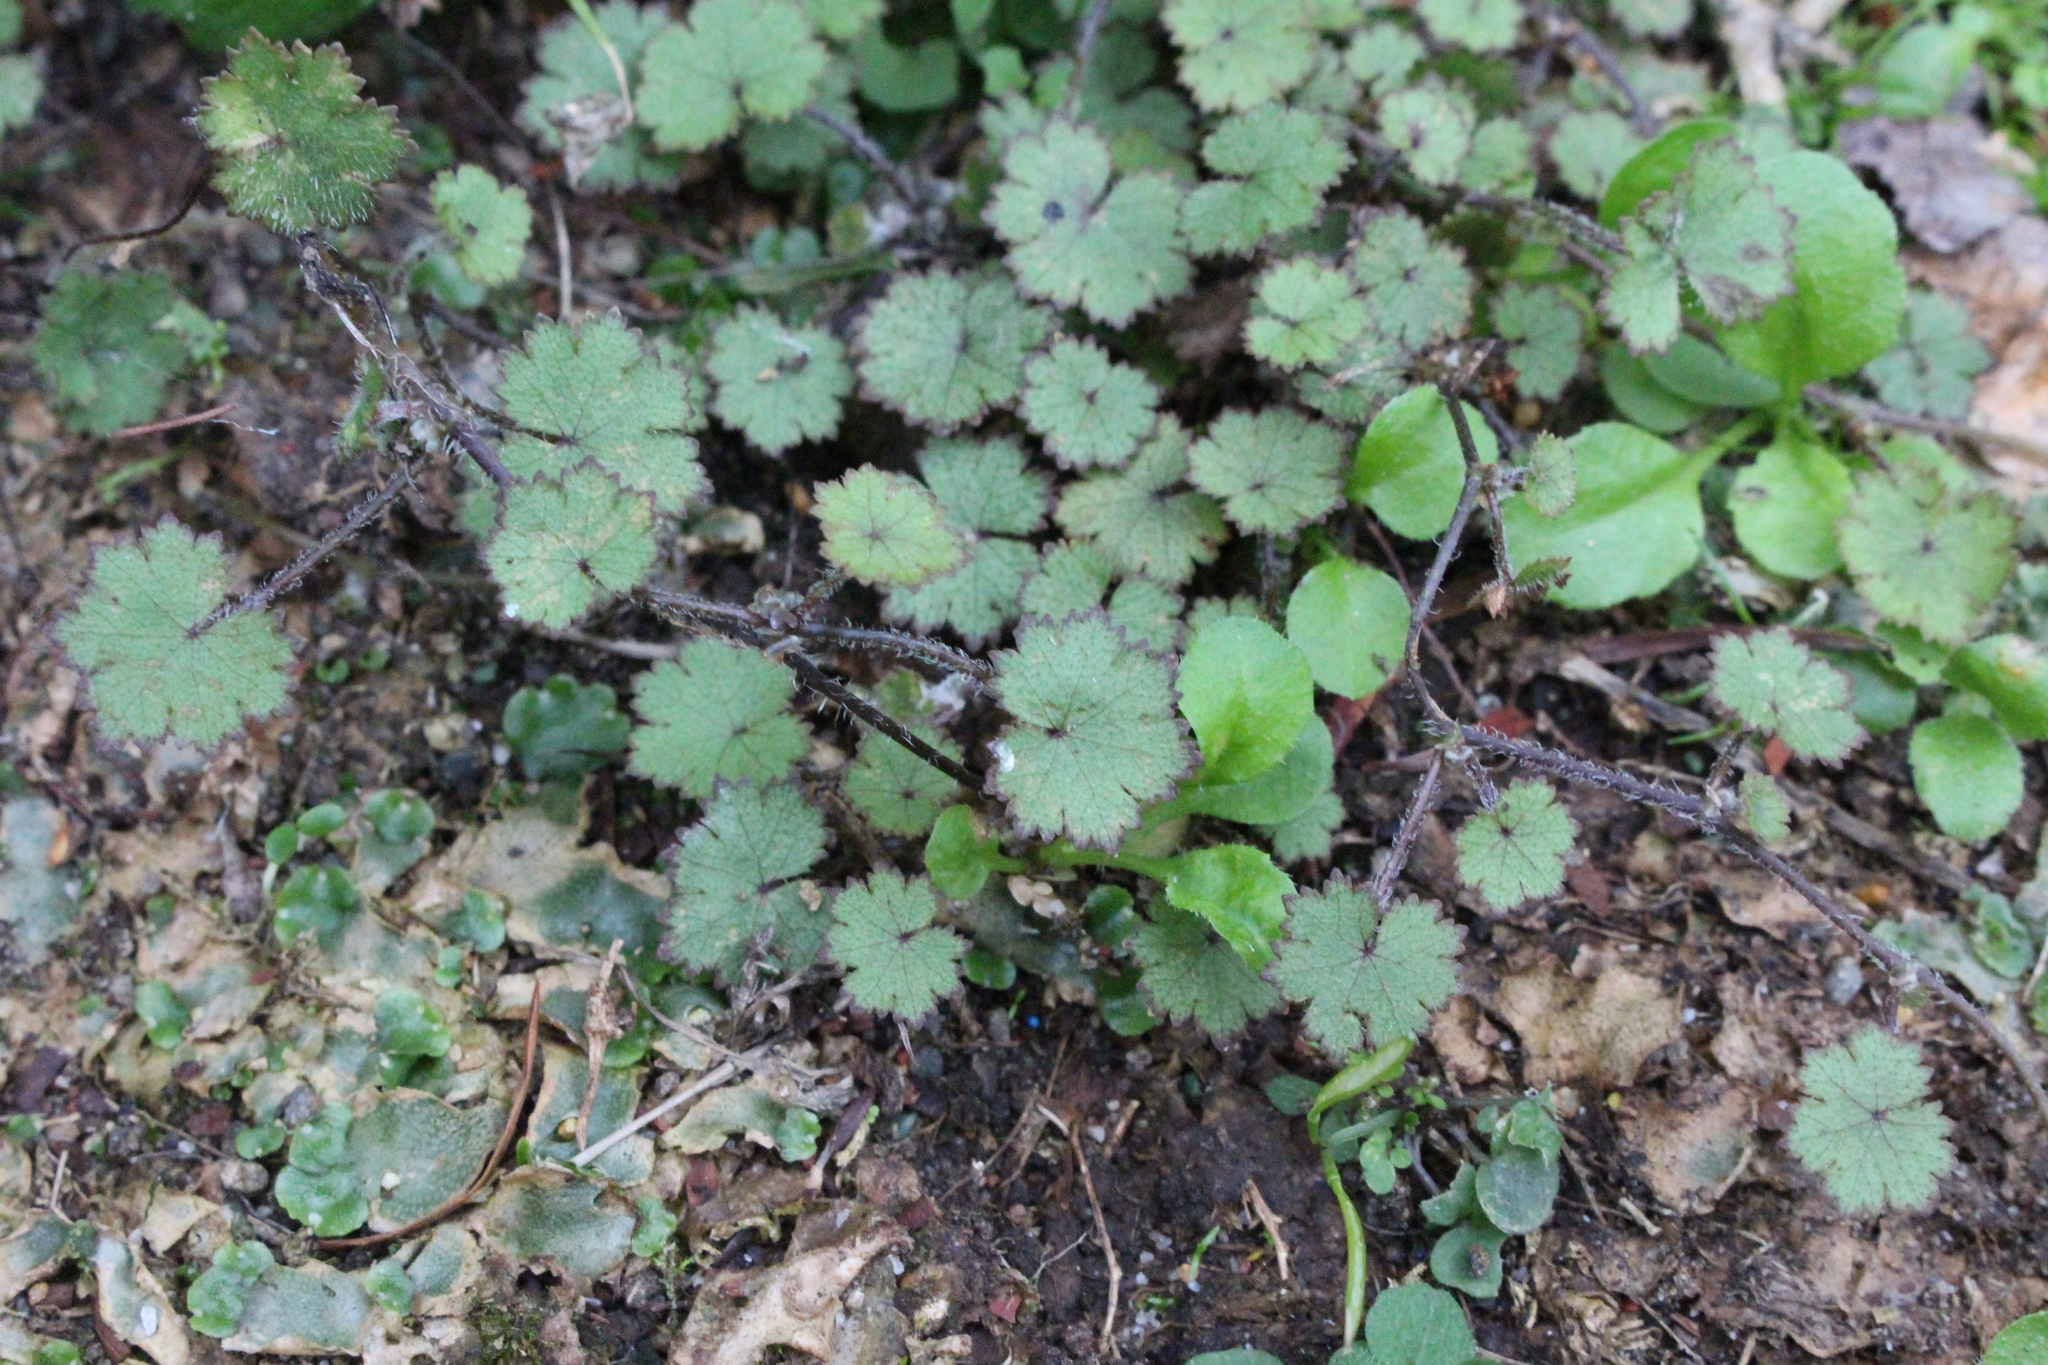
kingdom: Plantae
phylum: Tracheophyta
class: Magnoliopsida
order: Apiales
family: Araliaceae
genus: Hydrocotyle
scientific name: Hydrocotyle moschata
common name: Hairy pennywort
